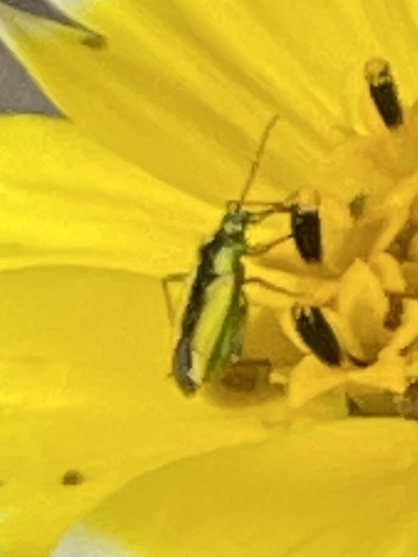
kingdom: Animalia
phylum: Arthropoda
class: Insecta
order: Hemiptera
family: Miridae
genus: Macrotylus
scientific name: Macrotylus dorsalis
